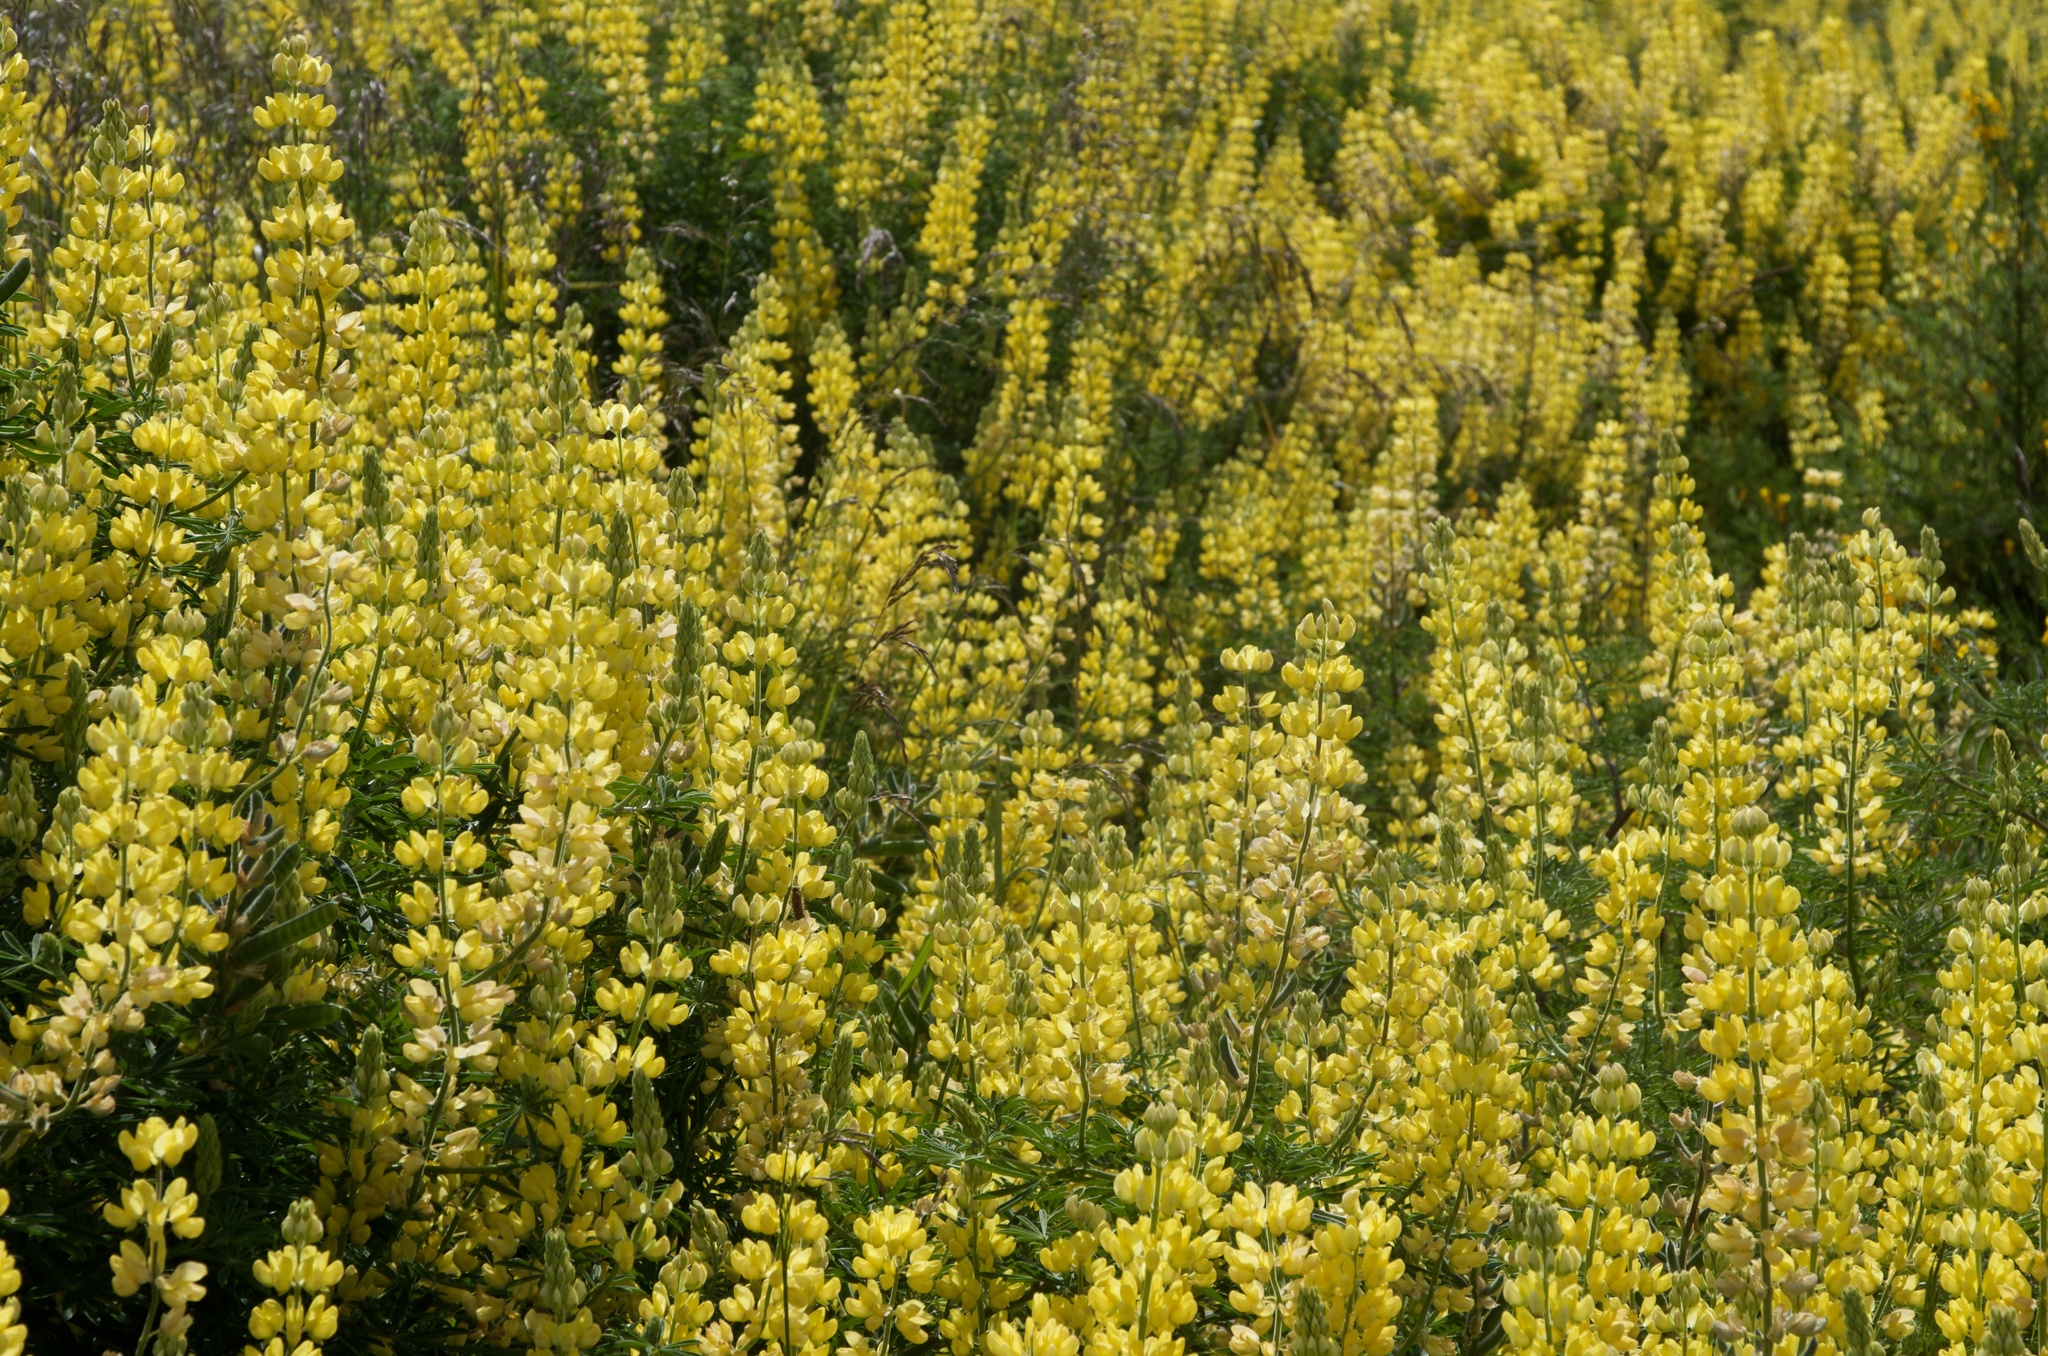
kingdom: Plantae
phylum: Tracheophyta
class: Magnoliopsida
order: Fabales
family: Fabaceae
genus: Lupinus
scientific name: Lupinus arboreus
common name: Yellow bush lupine
